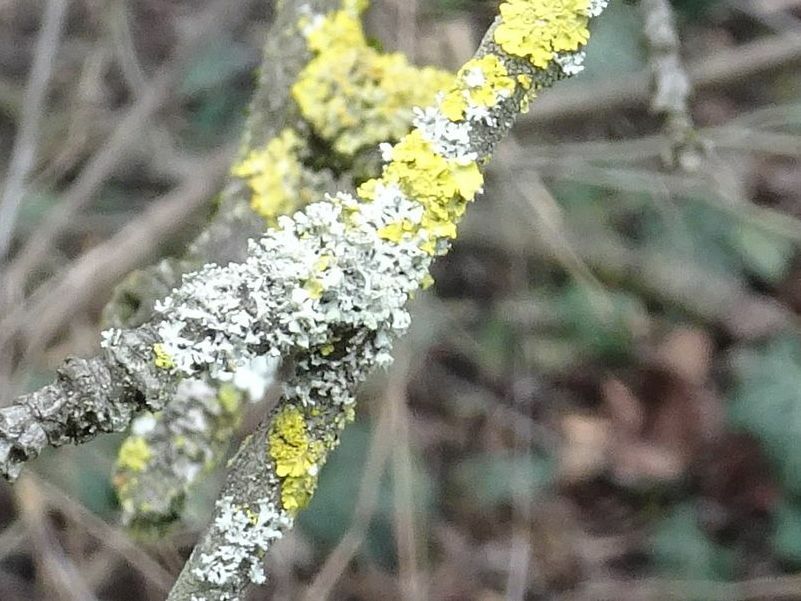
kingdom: Fungi
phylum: Ascomycota
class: Lecanoromycetes
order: Caliciales
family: Physciaceae
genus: Physcia
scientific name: Physcia adscendens
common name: Hooded rosette lichen
